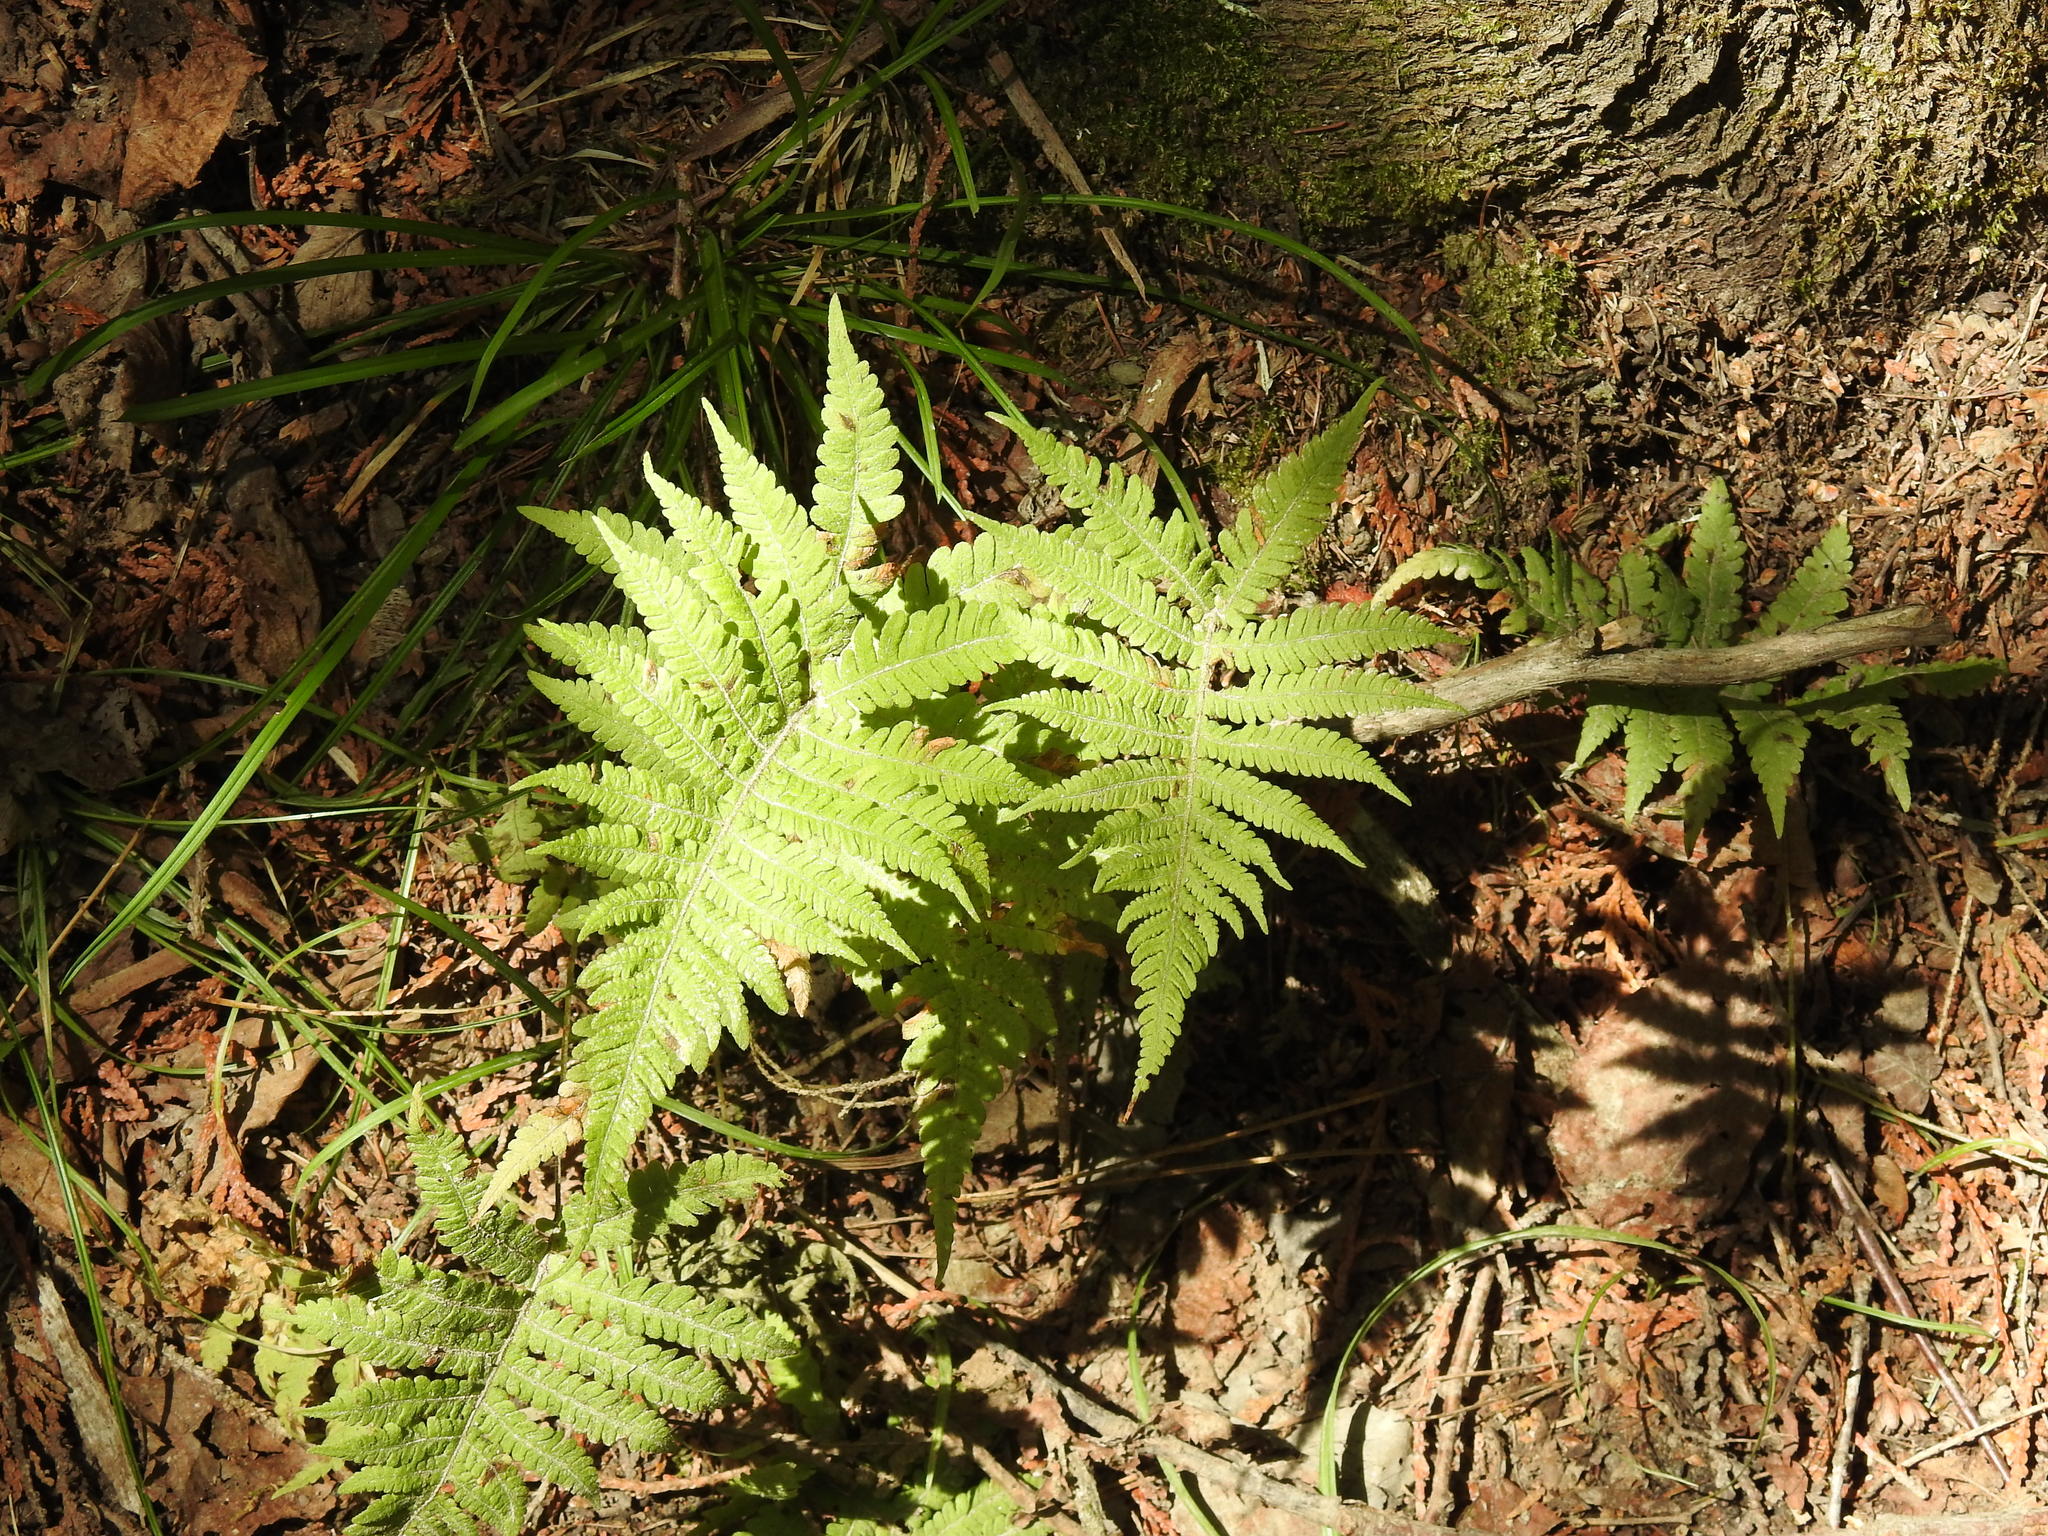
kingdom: Plantae
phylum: Tracheophyta
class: Polypodiopsida
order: Polypodiales
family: Thelypteridaceae
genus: Phegopteris
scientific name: Phegopteris connectilis
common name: Beech fern
